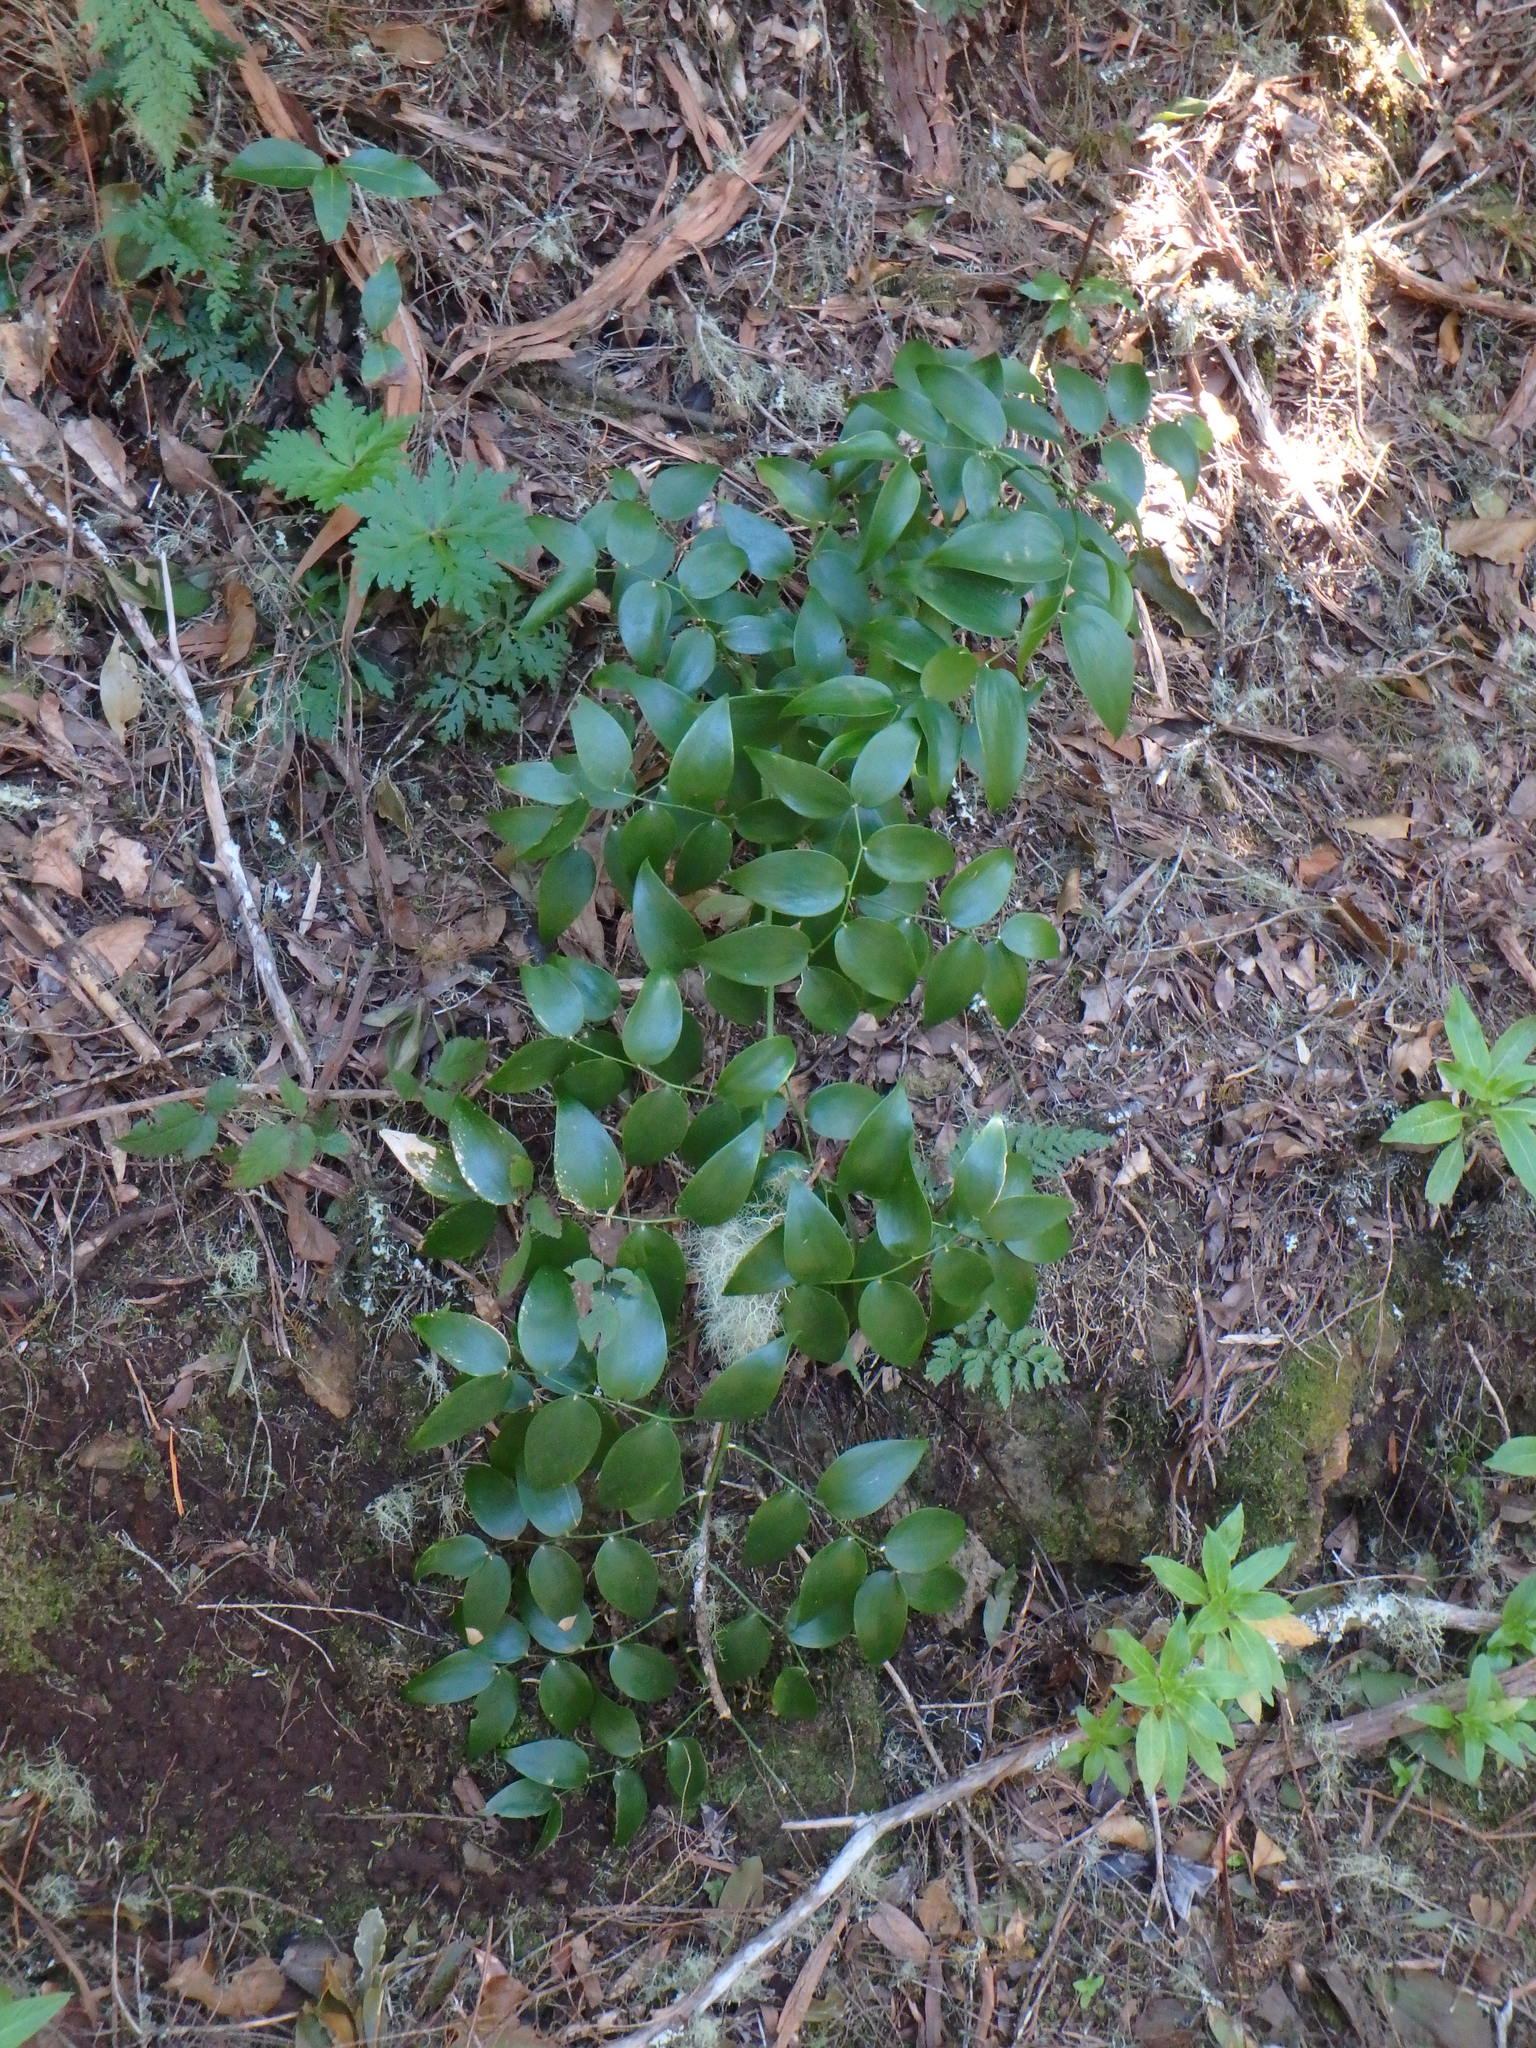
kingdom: Plantae
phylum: Tracheophyta
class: Liliopsida
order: Asparagales
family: Asparagaceae
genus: Semele
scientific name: Semele androgyna
